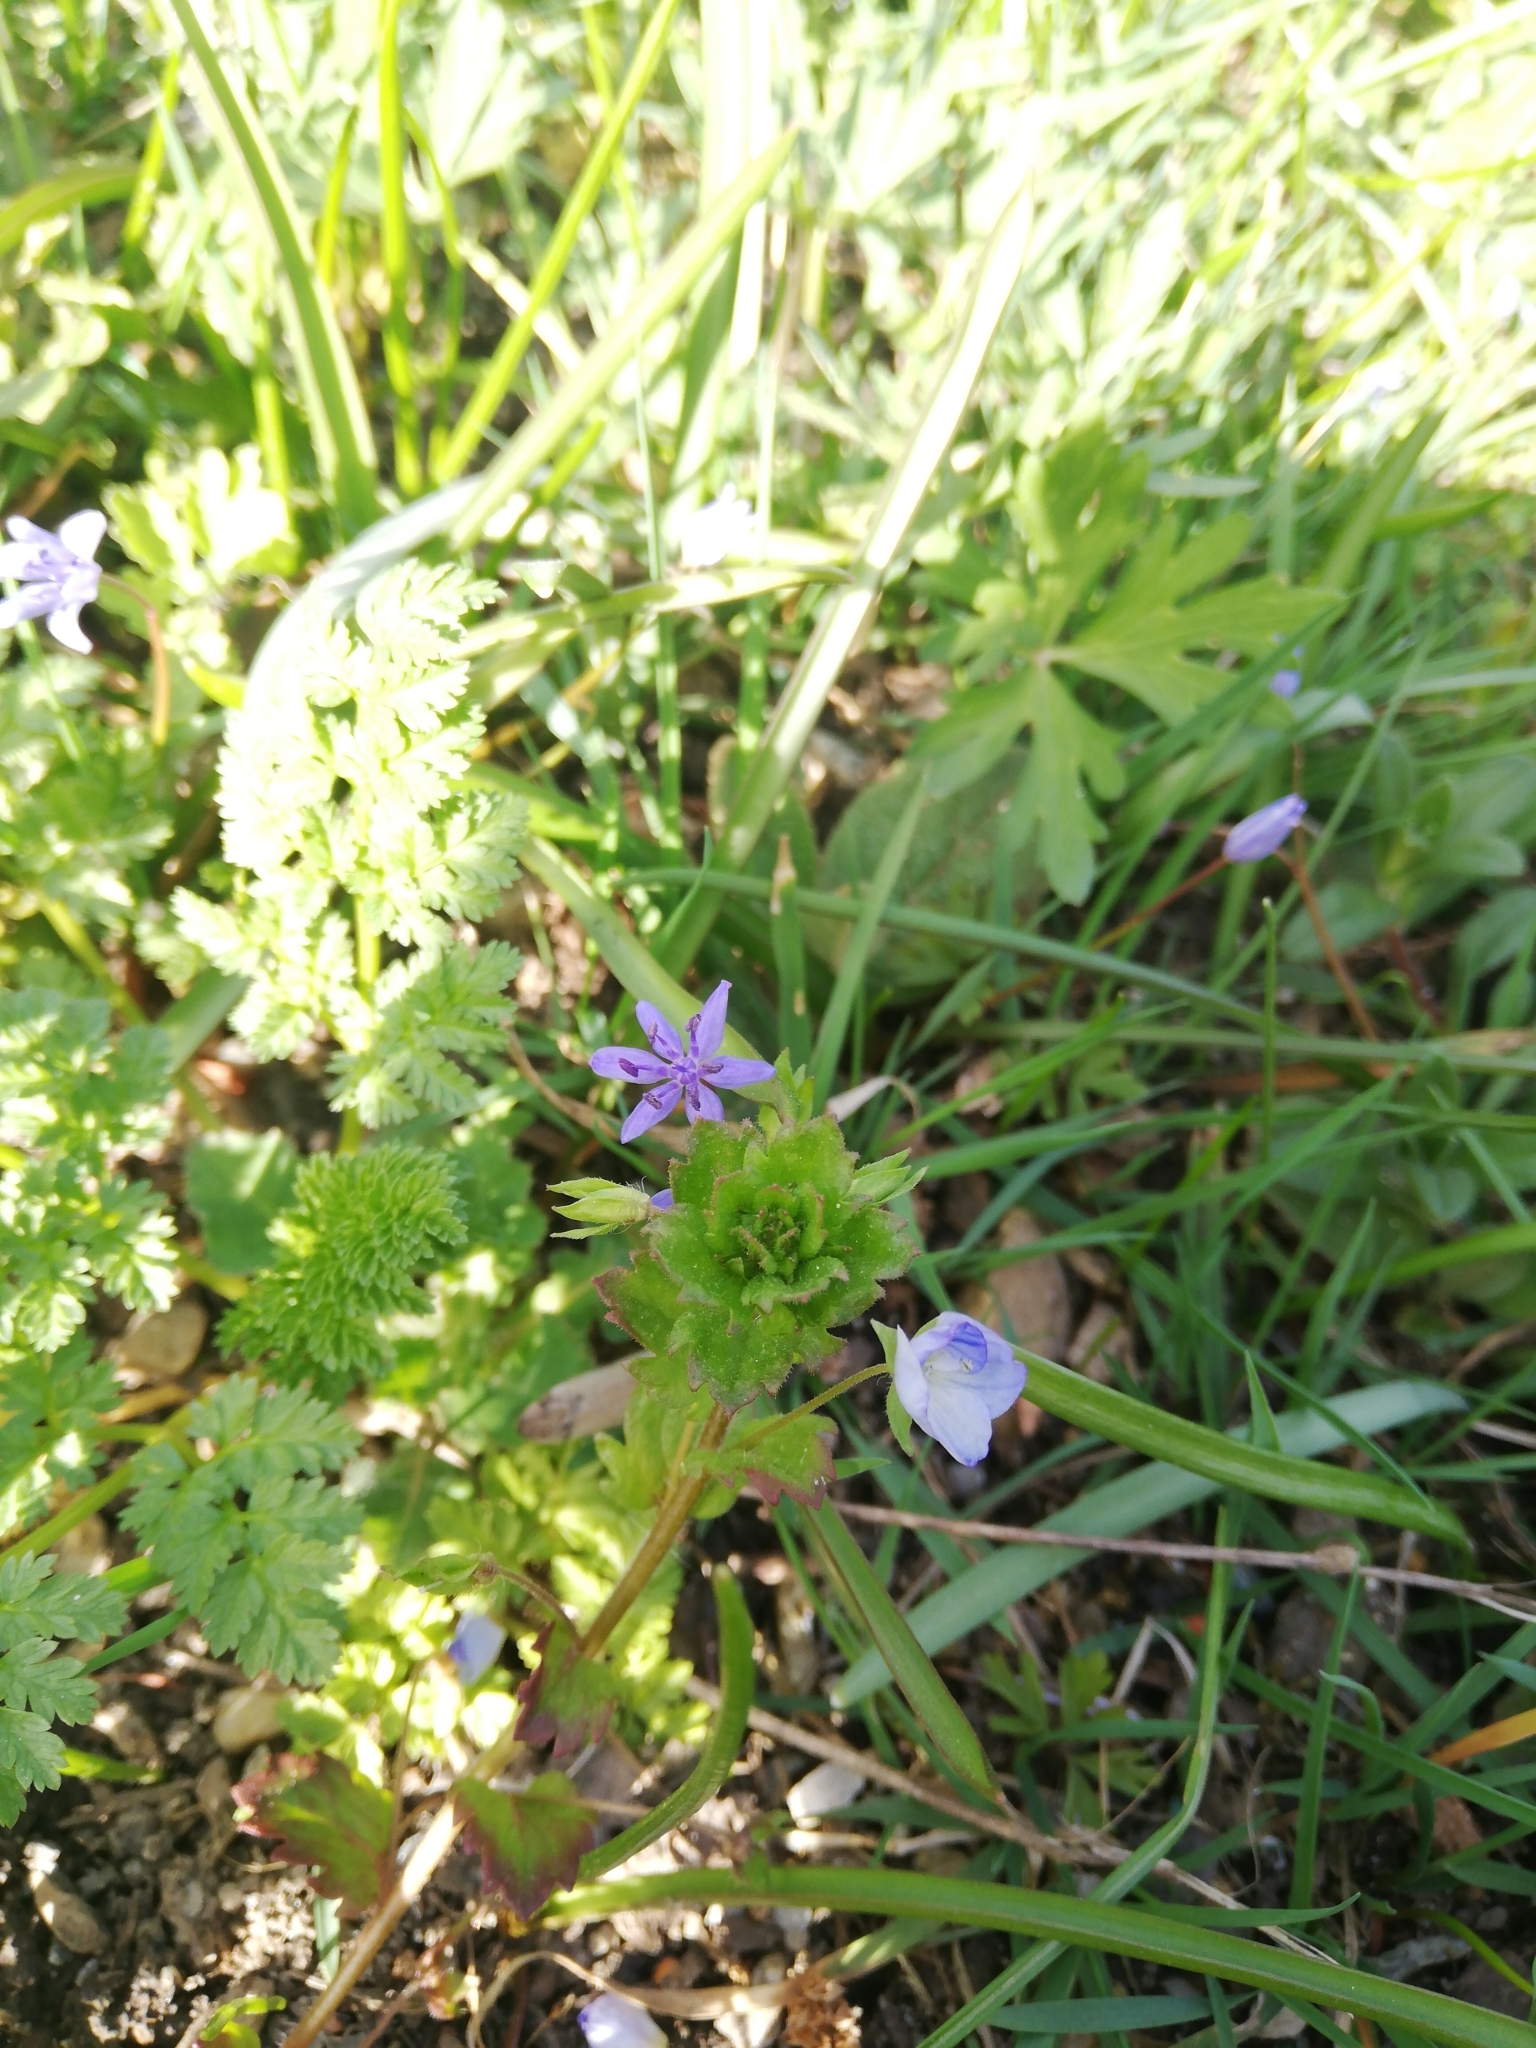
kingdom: Plantae
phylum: Tracheophyta
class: Magnoliopsida
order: Lamiales
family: Plantaginaceae
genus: Veronica
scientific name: Veronica persica
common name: Common field-speedwell
